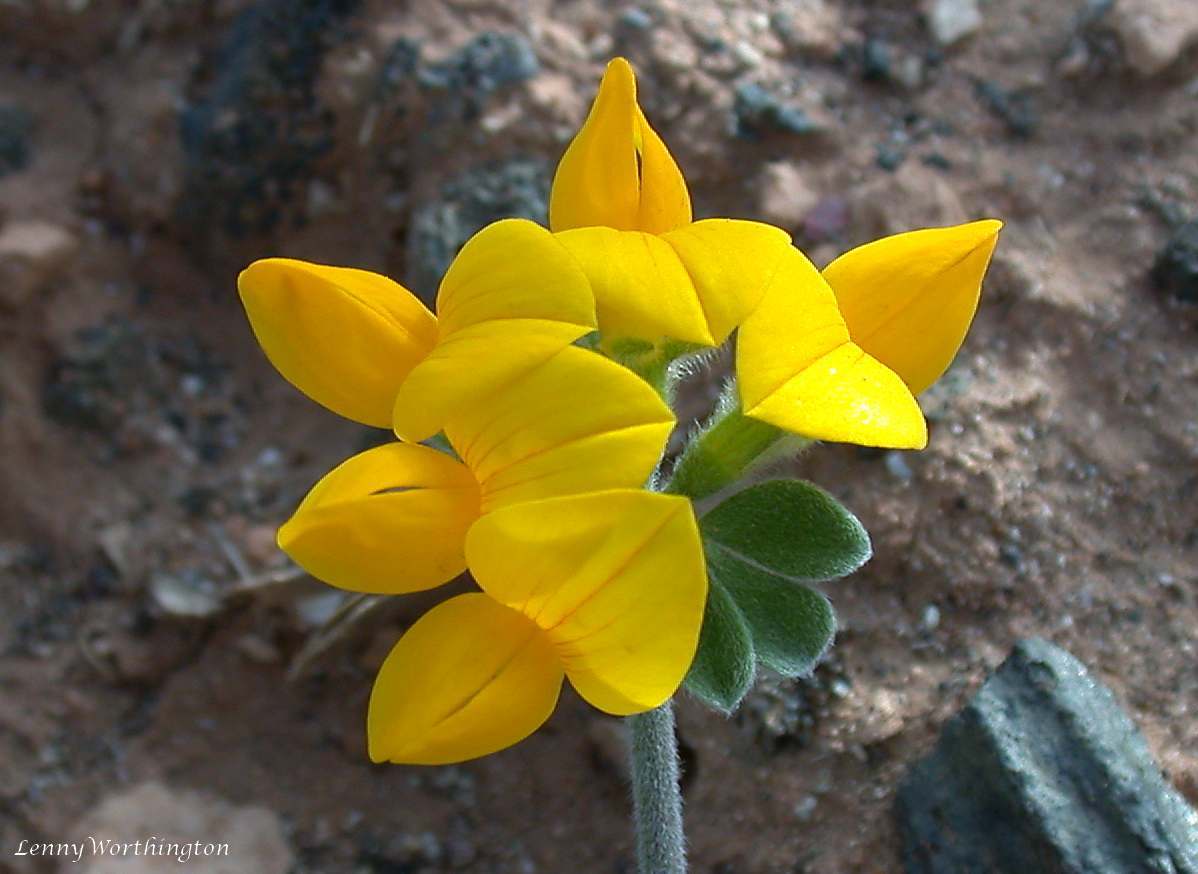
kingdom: Plantae
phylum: Tracheophyta
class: Magnoliopsida
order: Fabales
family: Fabaceae
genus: Lotus
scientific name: Lotus lancerottensis
